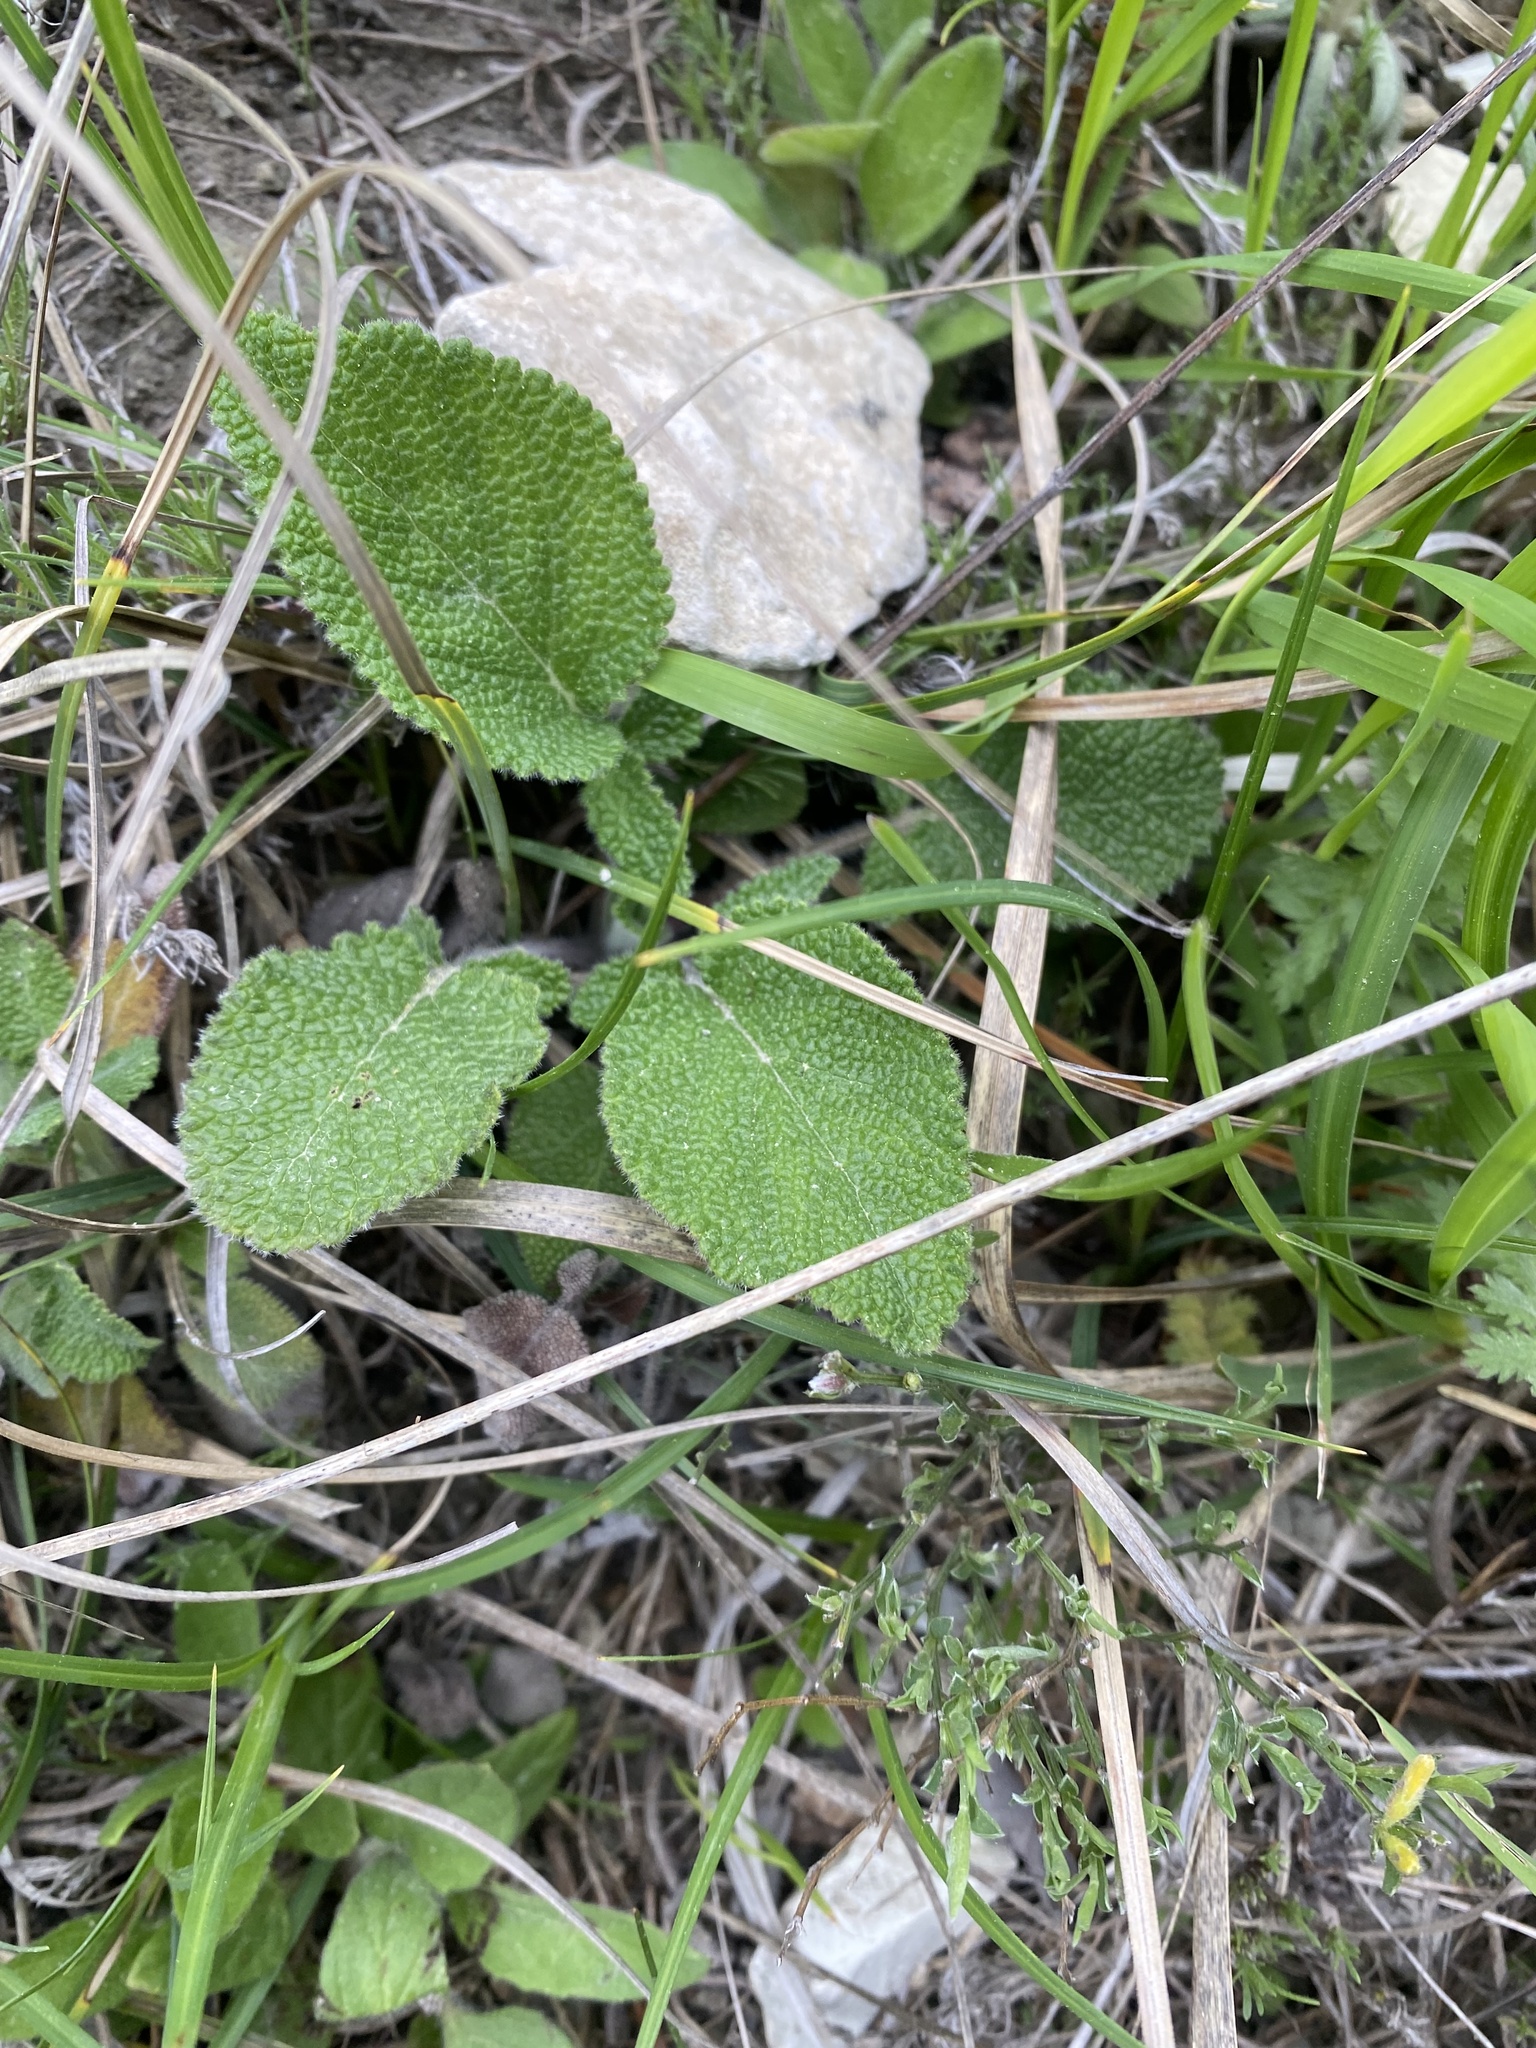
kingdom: Plantae
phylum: Tracheophyta
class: Magnoliopsida
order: Lamiales
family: Lamiaceae
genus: Salvia
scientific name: Salvia ringens
